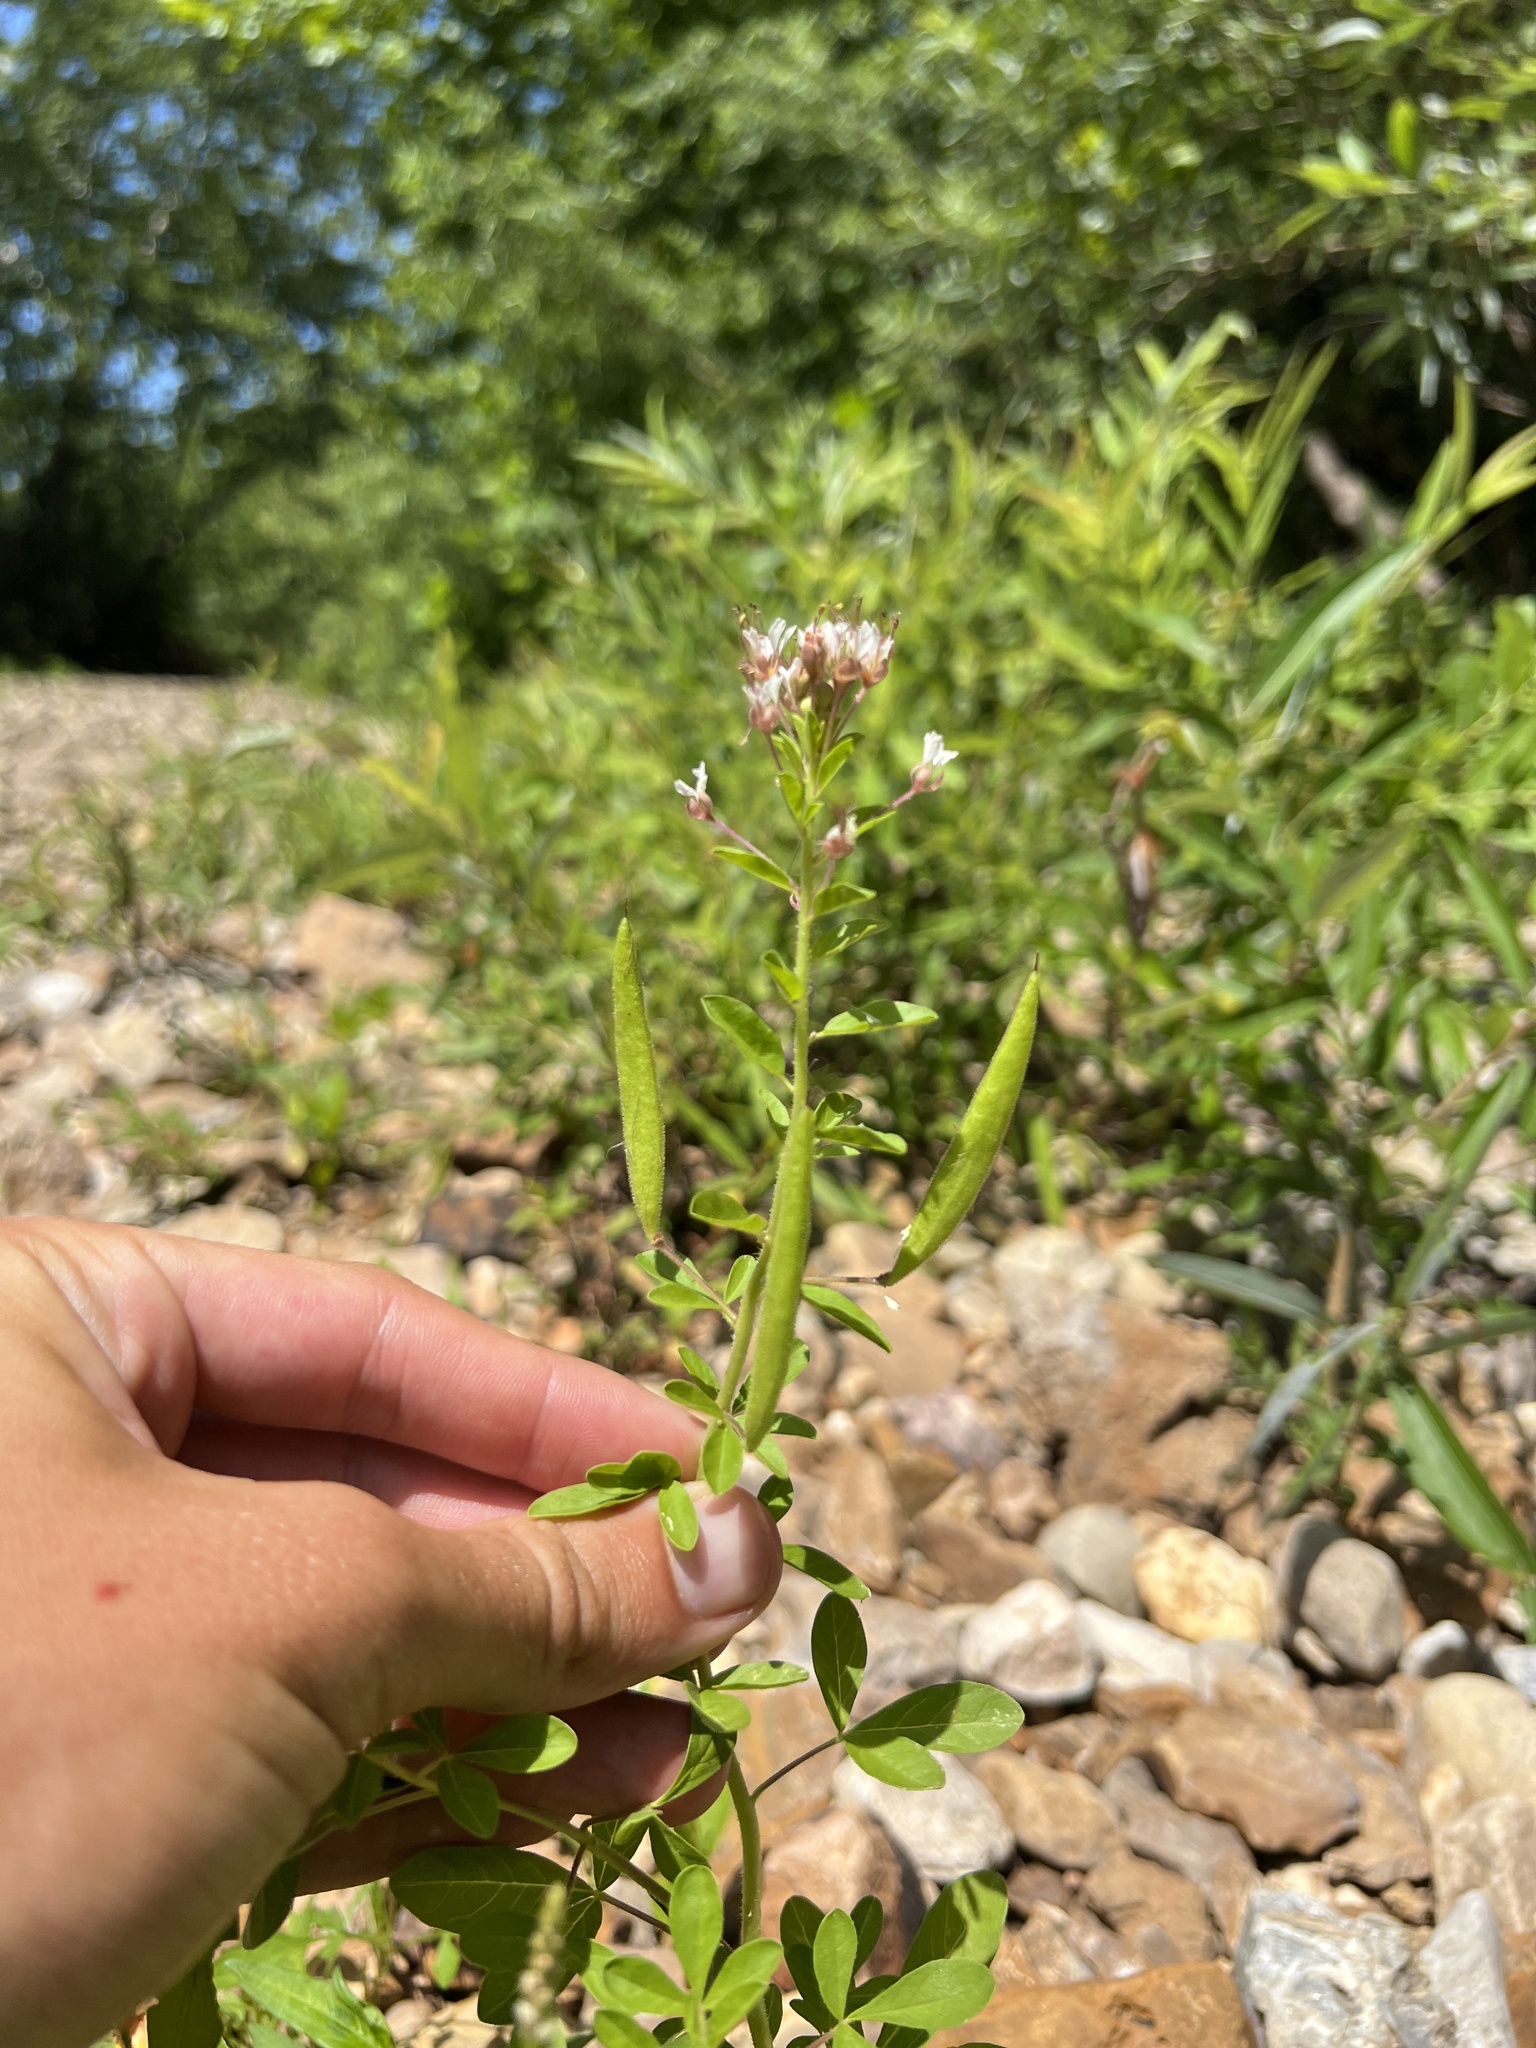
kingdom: Plantae
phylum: Tracheophyta
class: Magnoliopsida
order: Brassicales
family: Cleomaceae
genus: Polanisia
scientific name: Polanisia dodecandra
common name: Clammyweed
